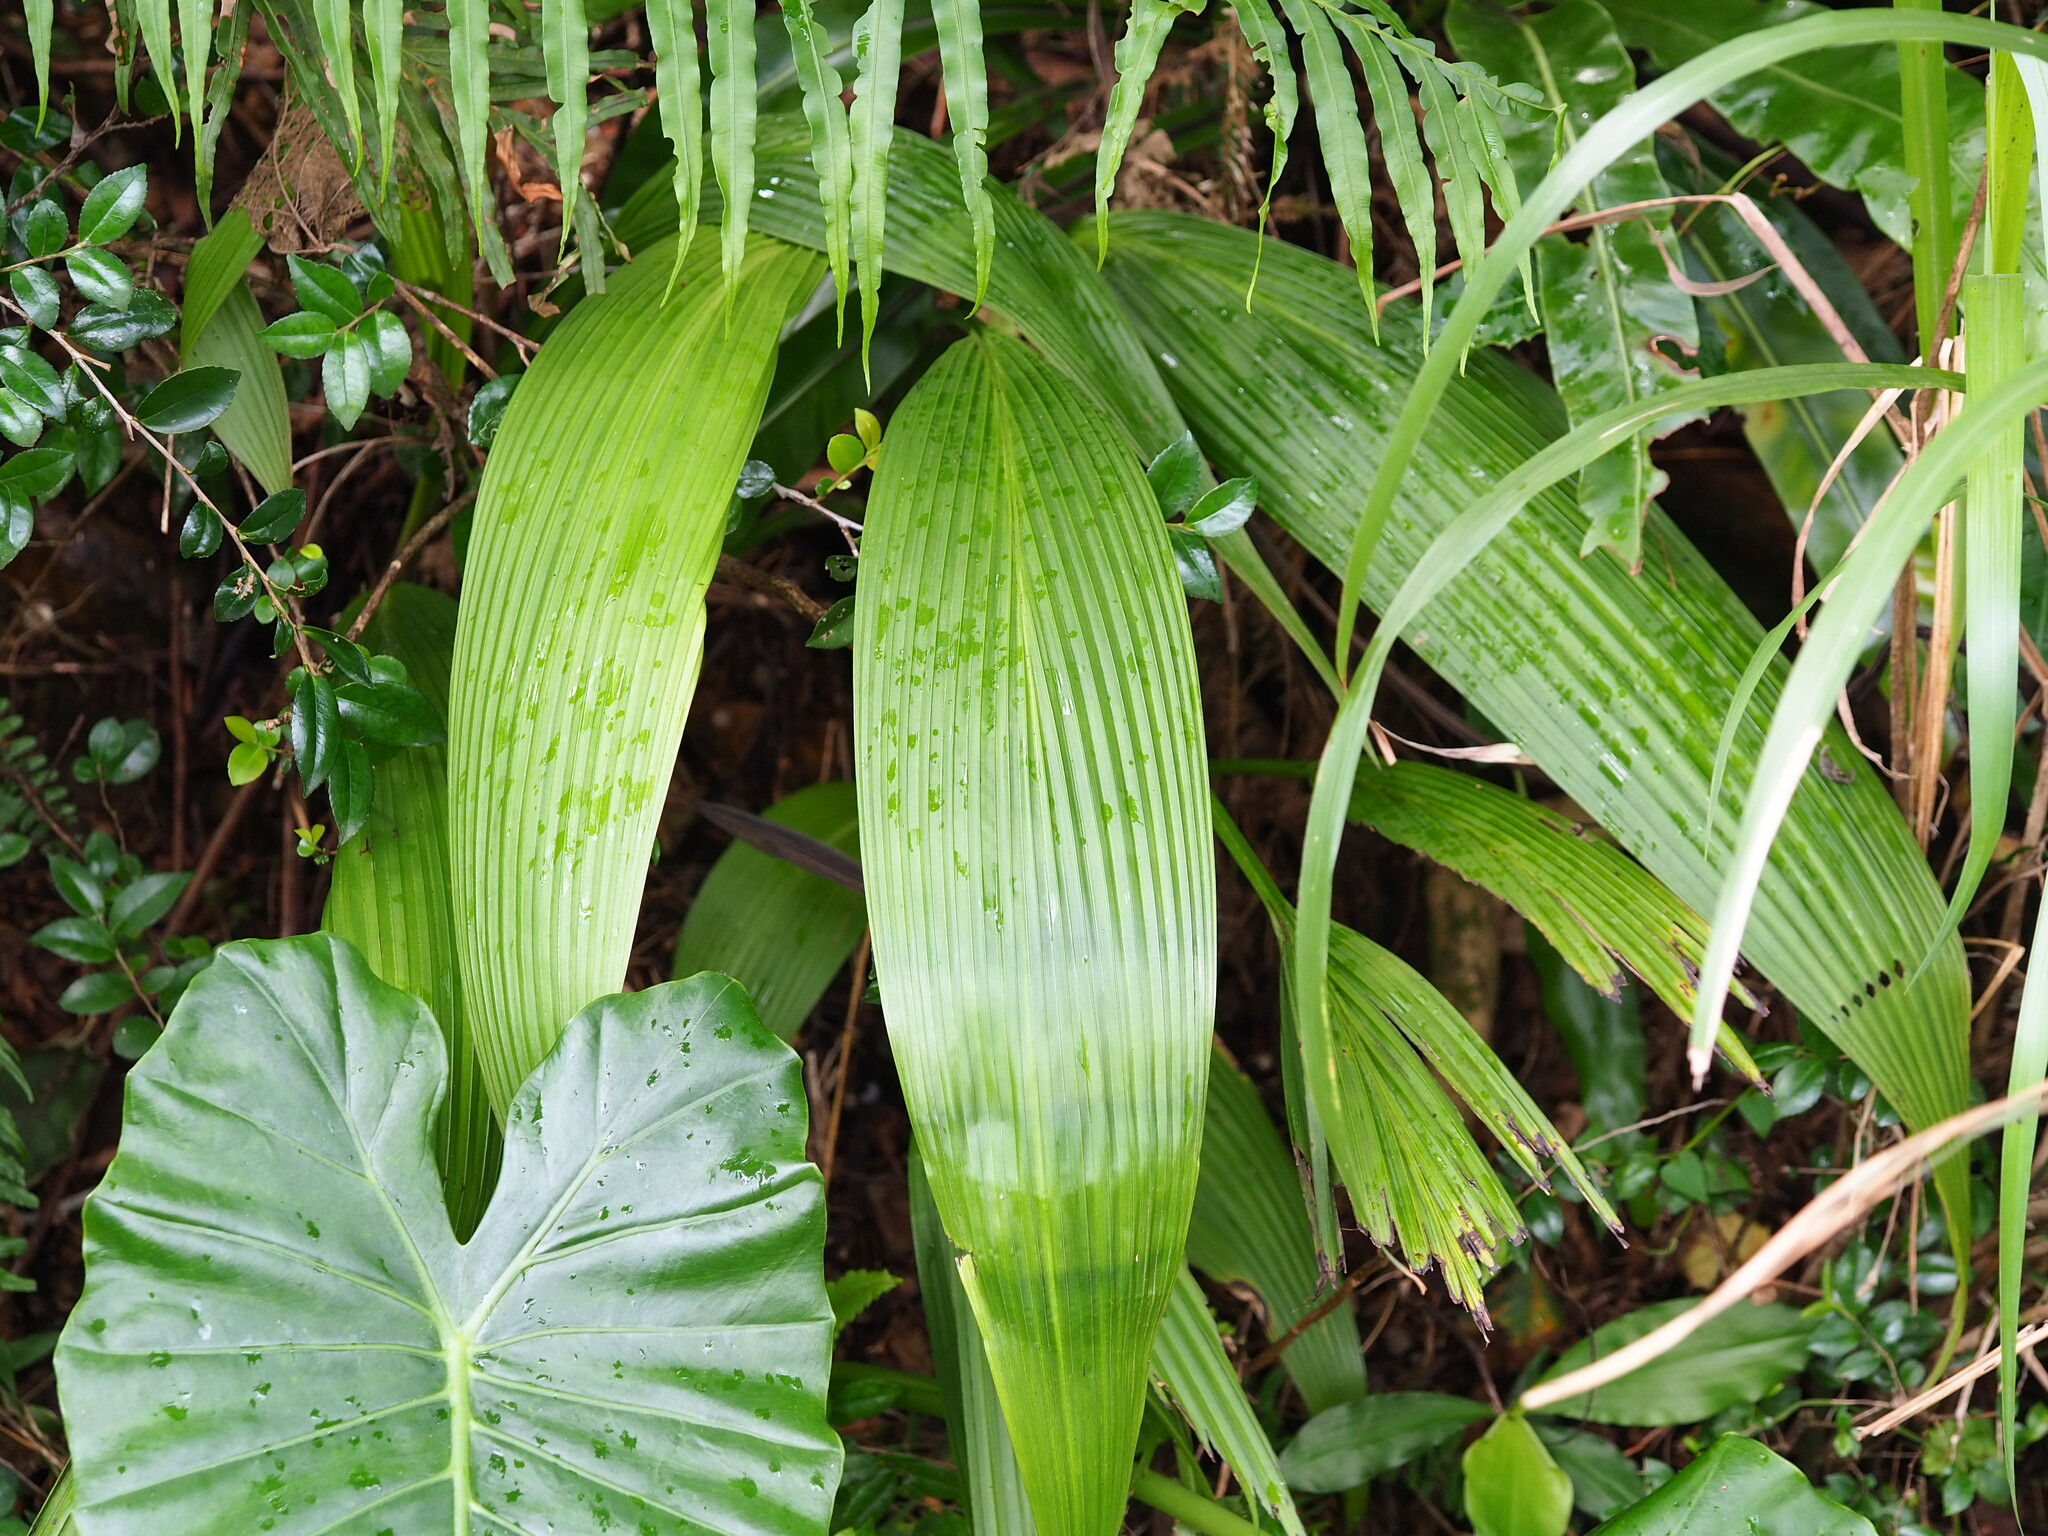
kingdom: Plantae
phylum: Tracheophyta
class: Liliopsida
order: Asparagales
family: Hypoxidaceae
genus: Curculigo
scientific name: Curculigo capitulata
